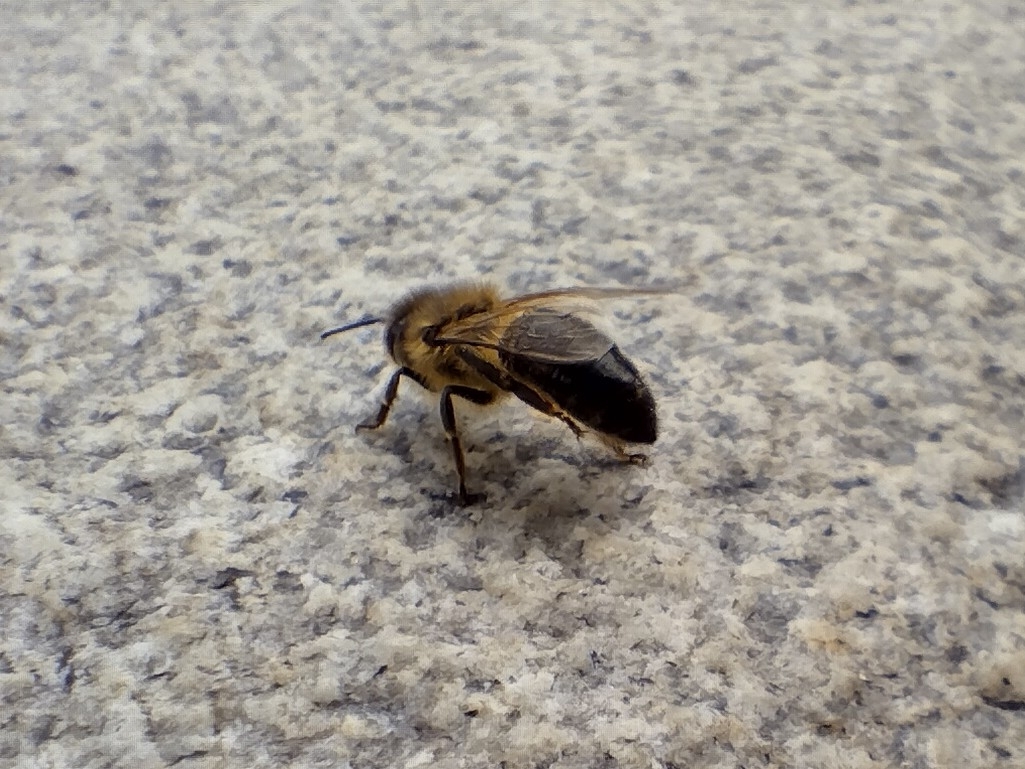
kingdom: Animalia
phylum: Arthropoda
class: Insecta
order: Hymenoptera
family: Apidae
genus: Apis
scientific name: Apis mellifera
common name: Honey bee
